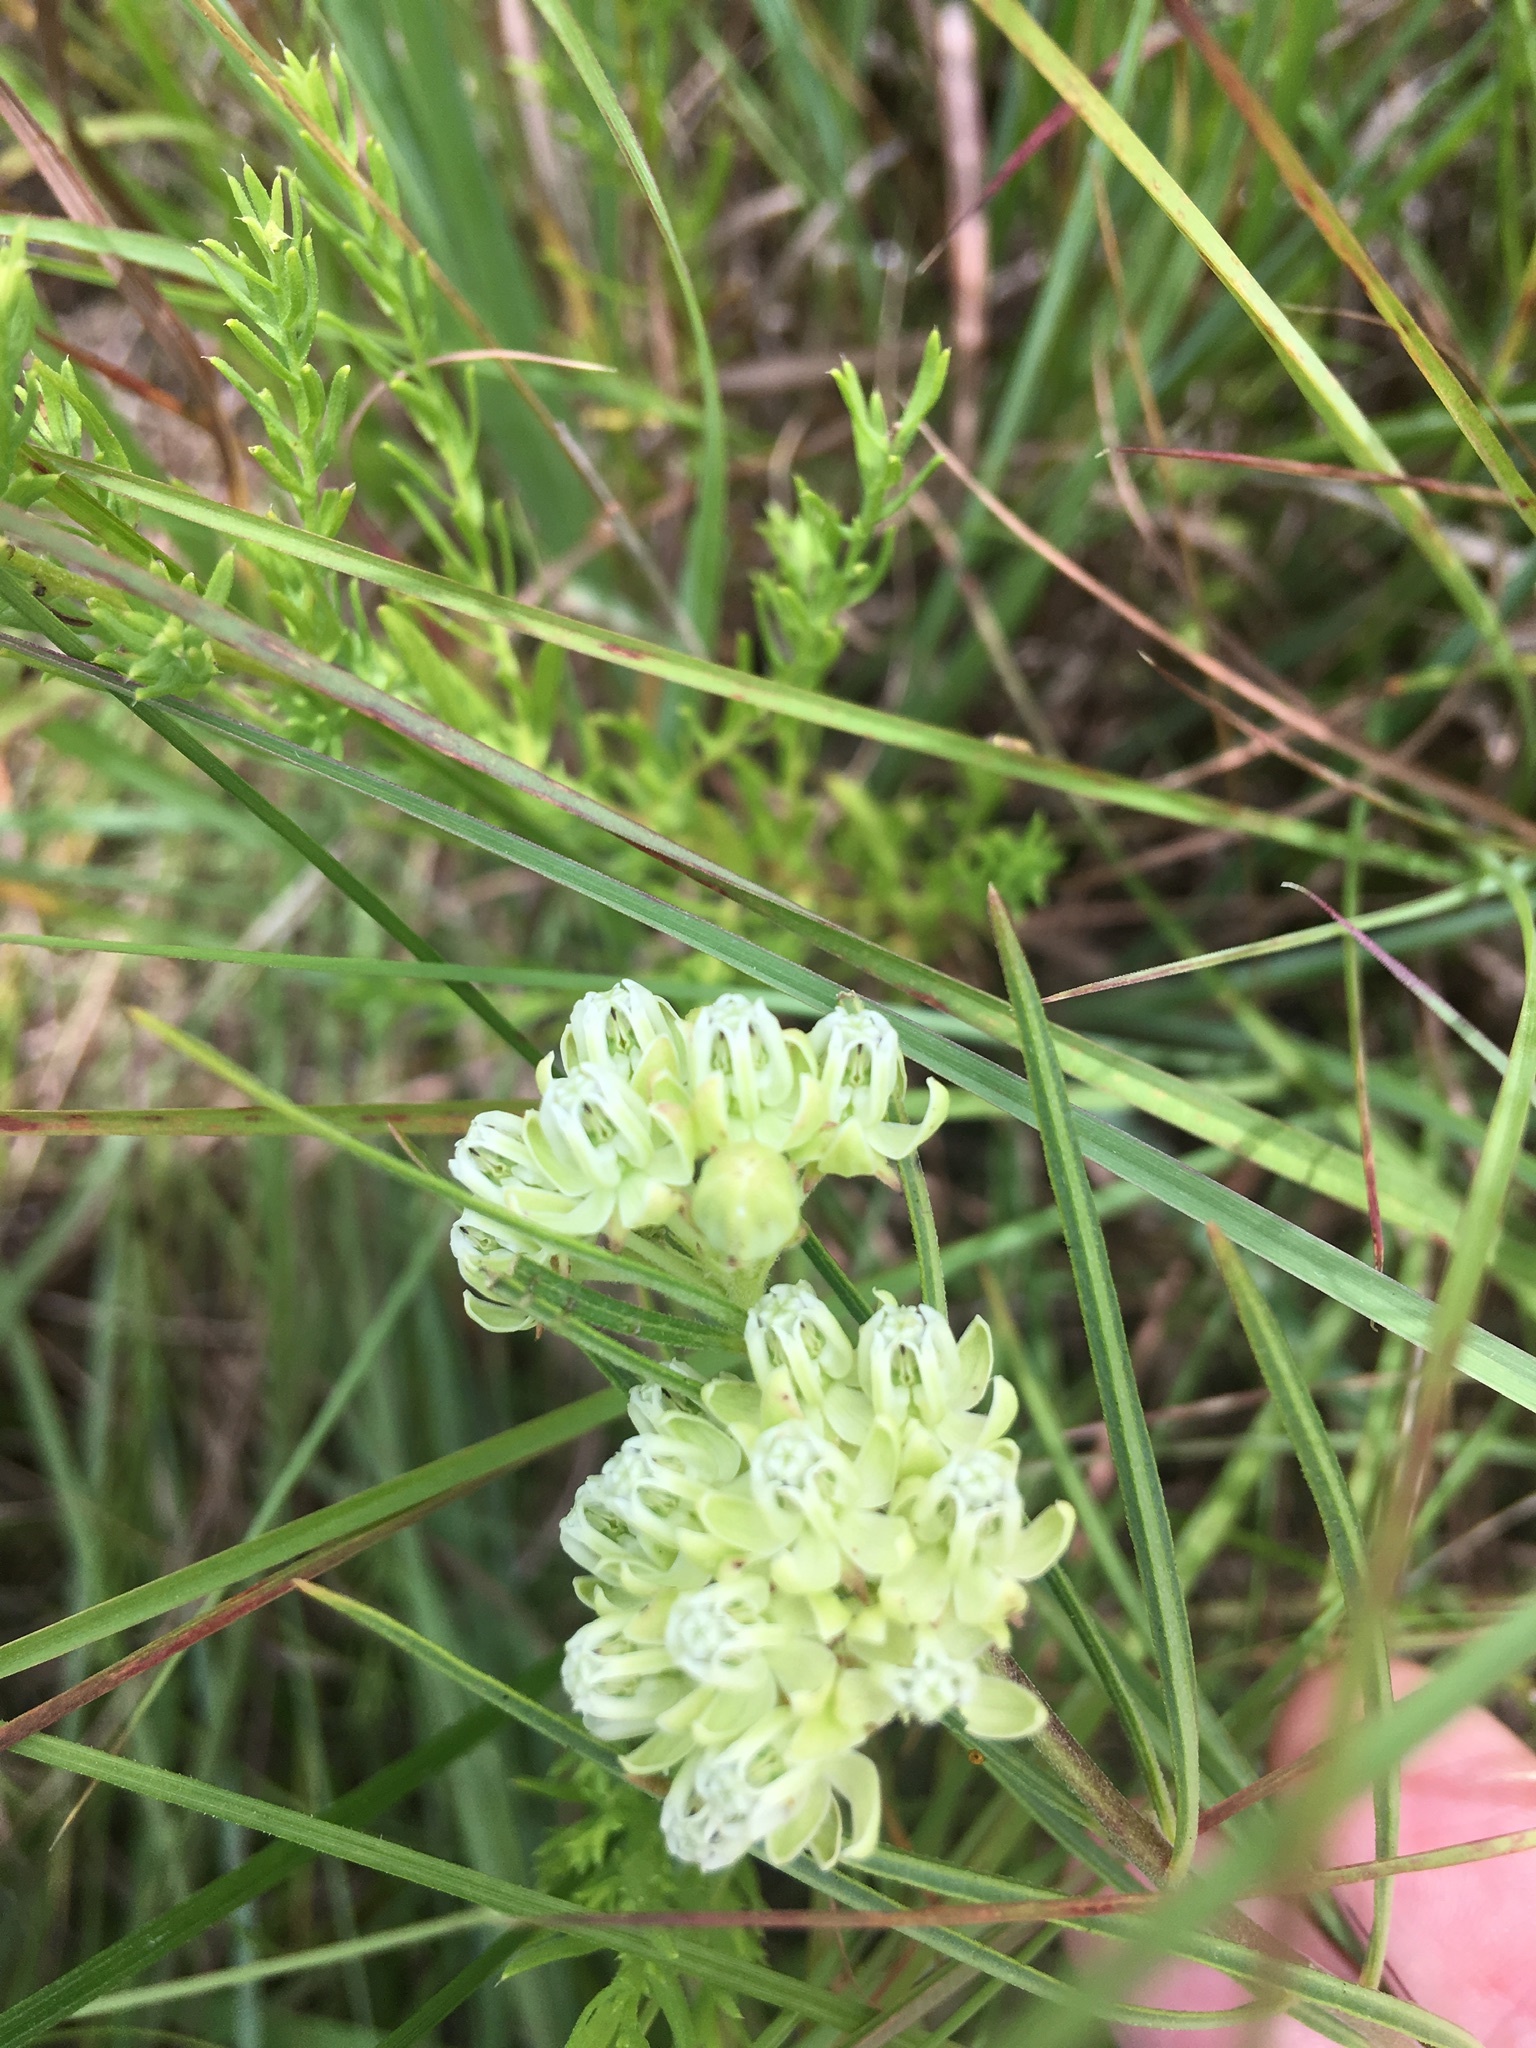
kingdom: Plantae
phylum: Tracheophyta
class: Magnoliopsida
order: Gentianales
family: Apocynaceae
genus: Asclepias
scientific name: Asclepias stenophylla
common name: Narrow-leaf milkweed
